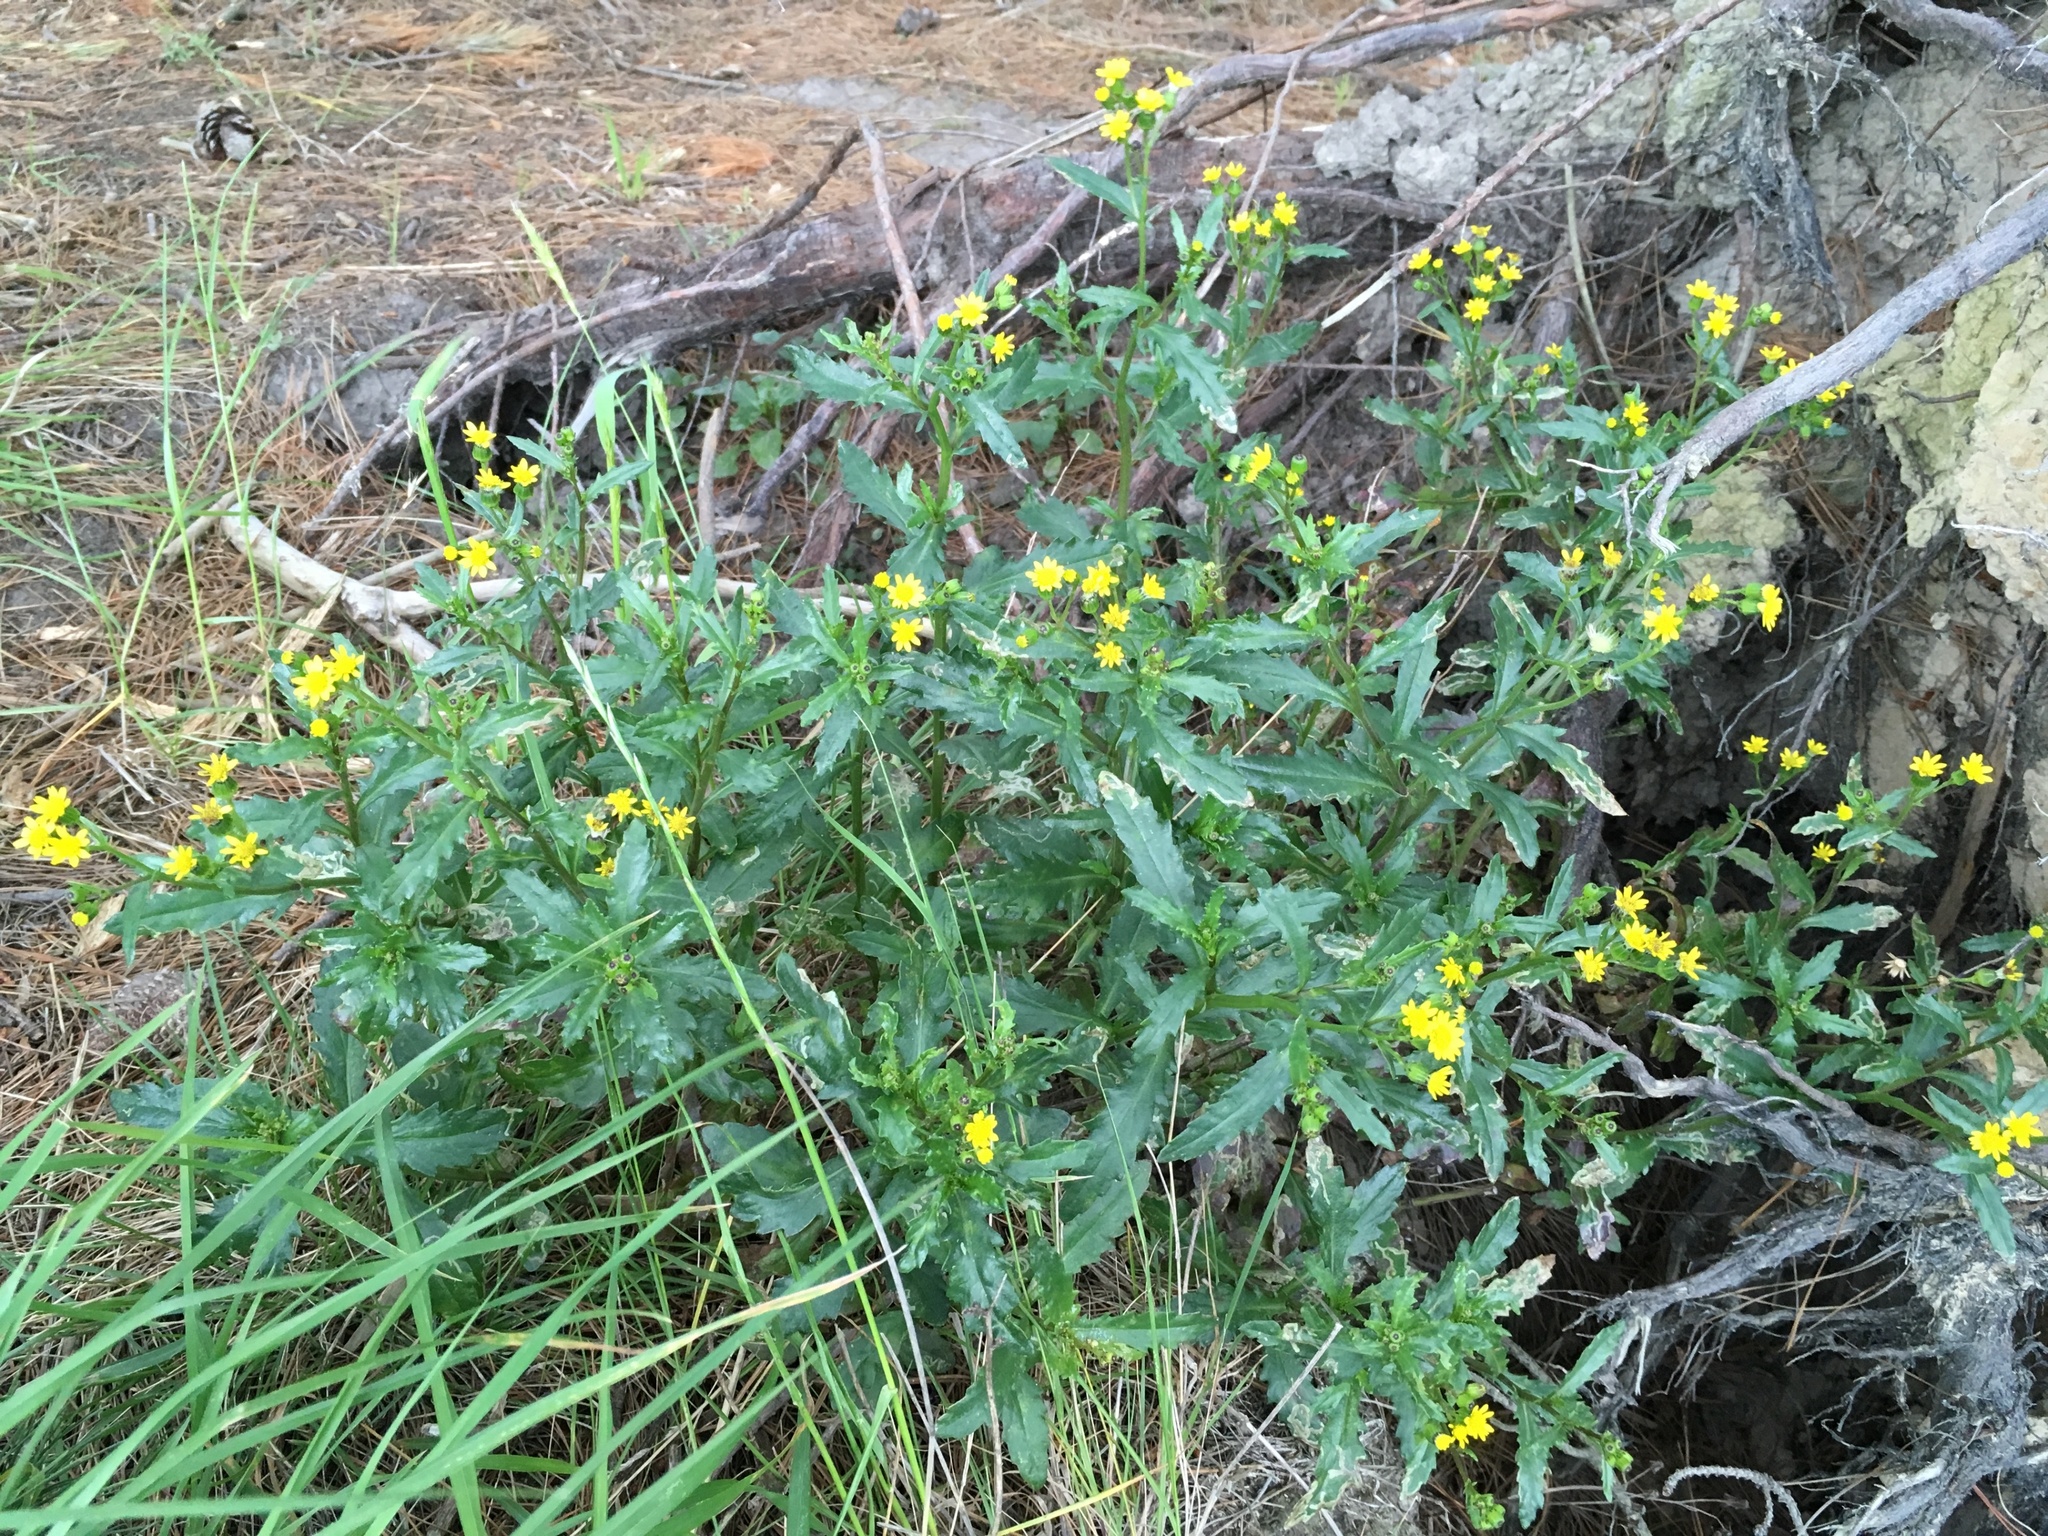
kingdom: Plantae
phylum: Tracheophyta
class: Magnoliopsida
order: Asterales
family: Asteraceae
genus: Senecio
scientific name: Senecio matatini
